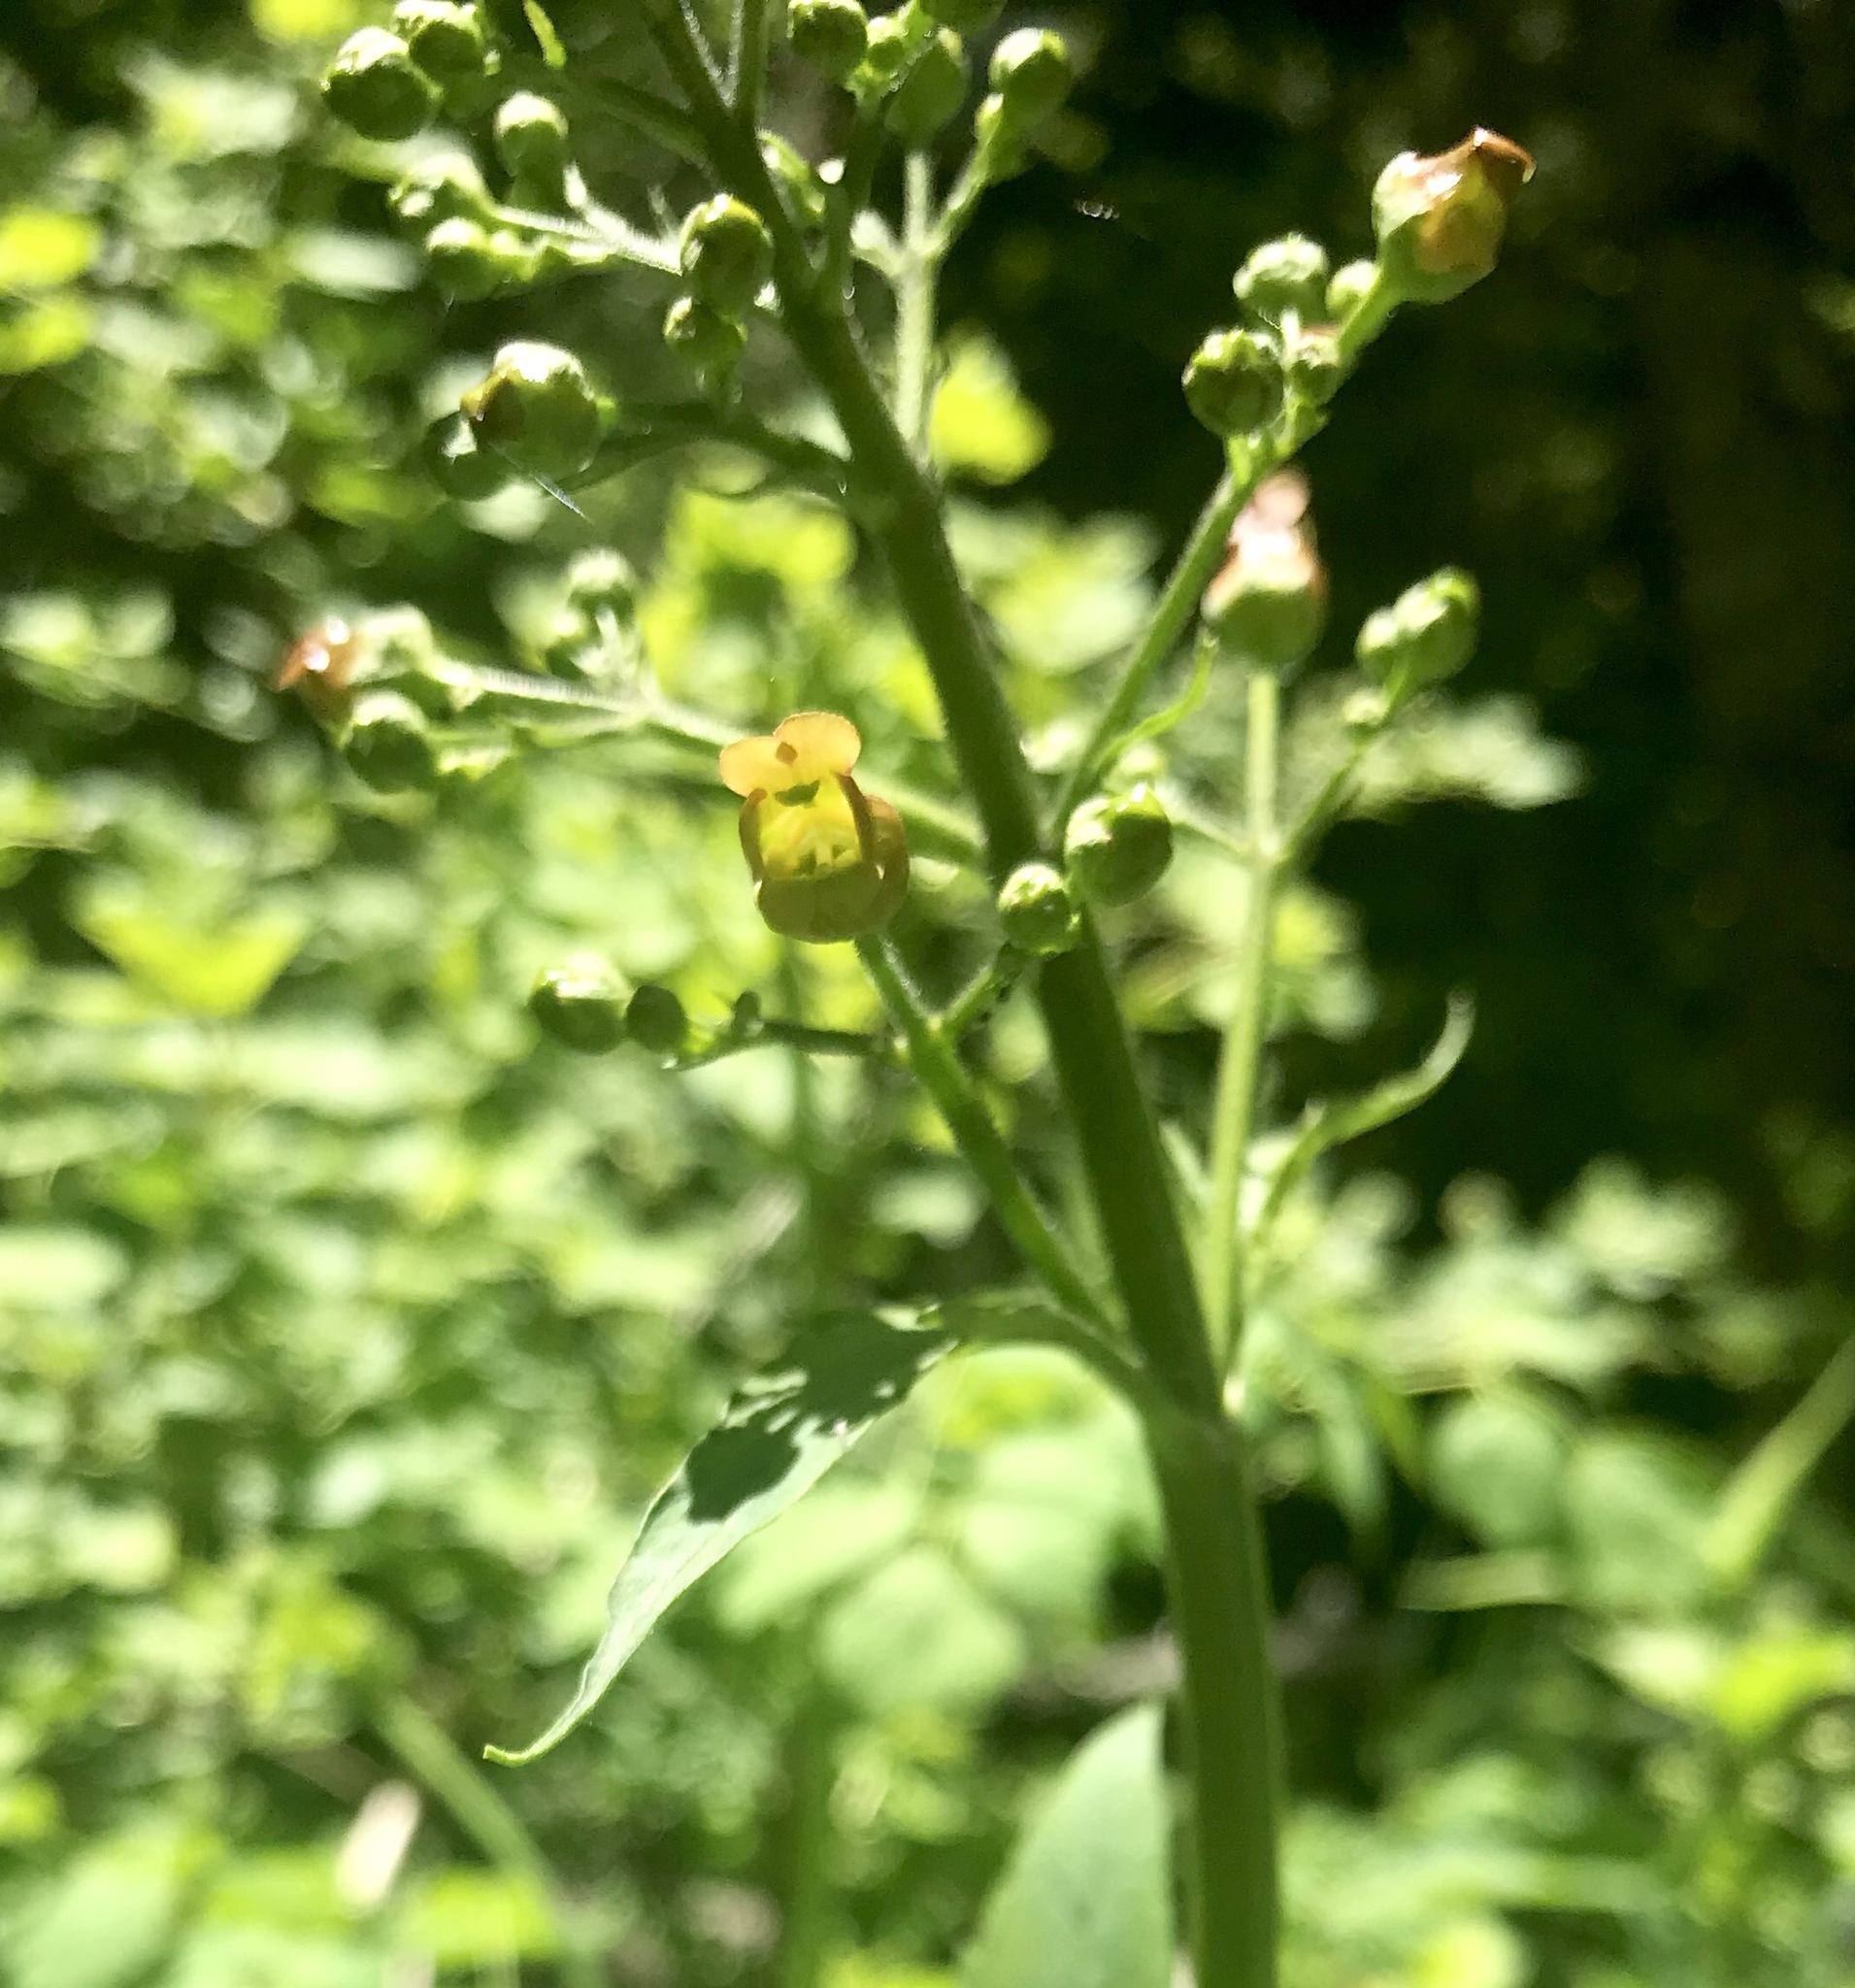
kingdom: Plantae
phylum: Tracheophyta
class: Magnoliopsida
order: Lamiales
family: Scrophulariaceae
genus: Scrophularia
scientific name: Scrophularia lanceolata
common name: American figwort
